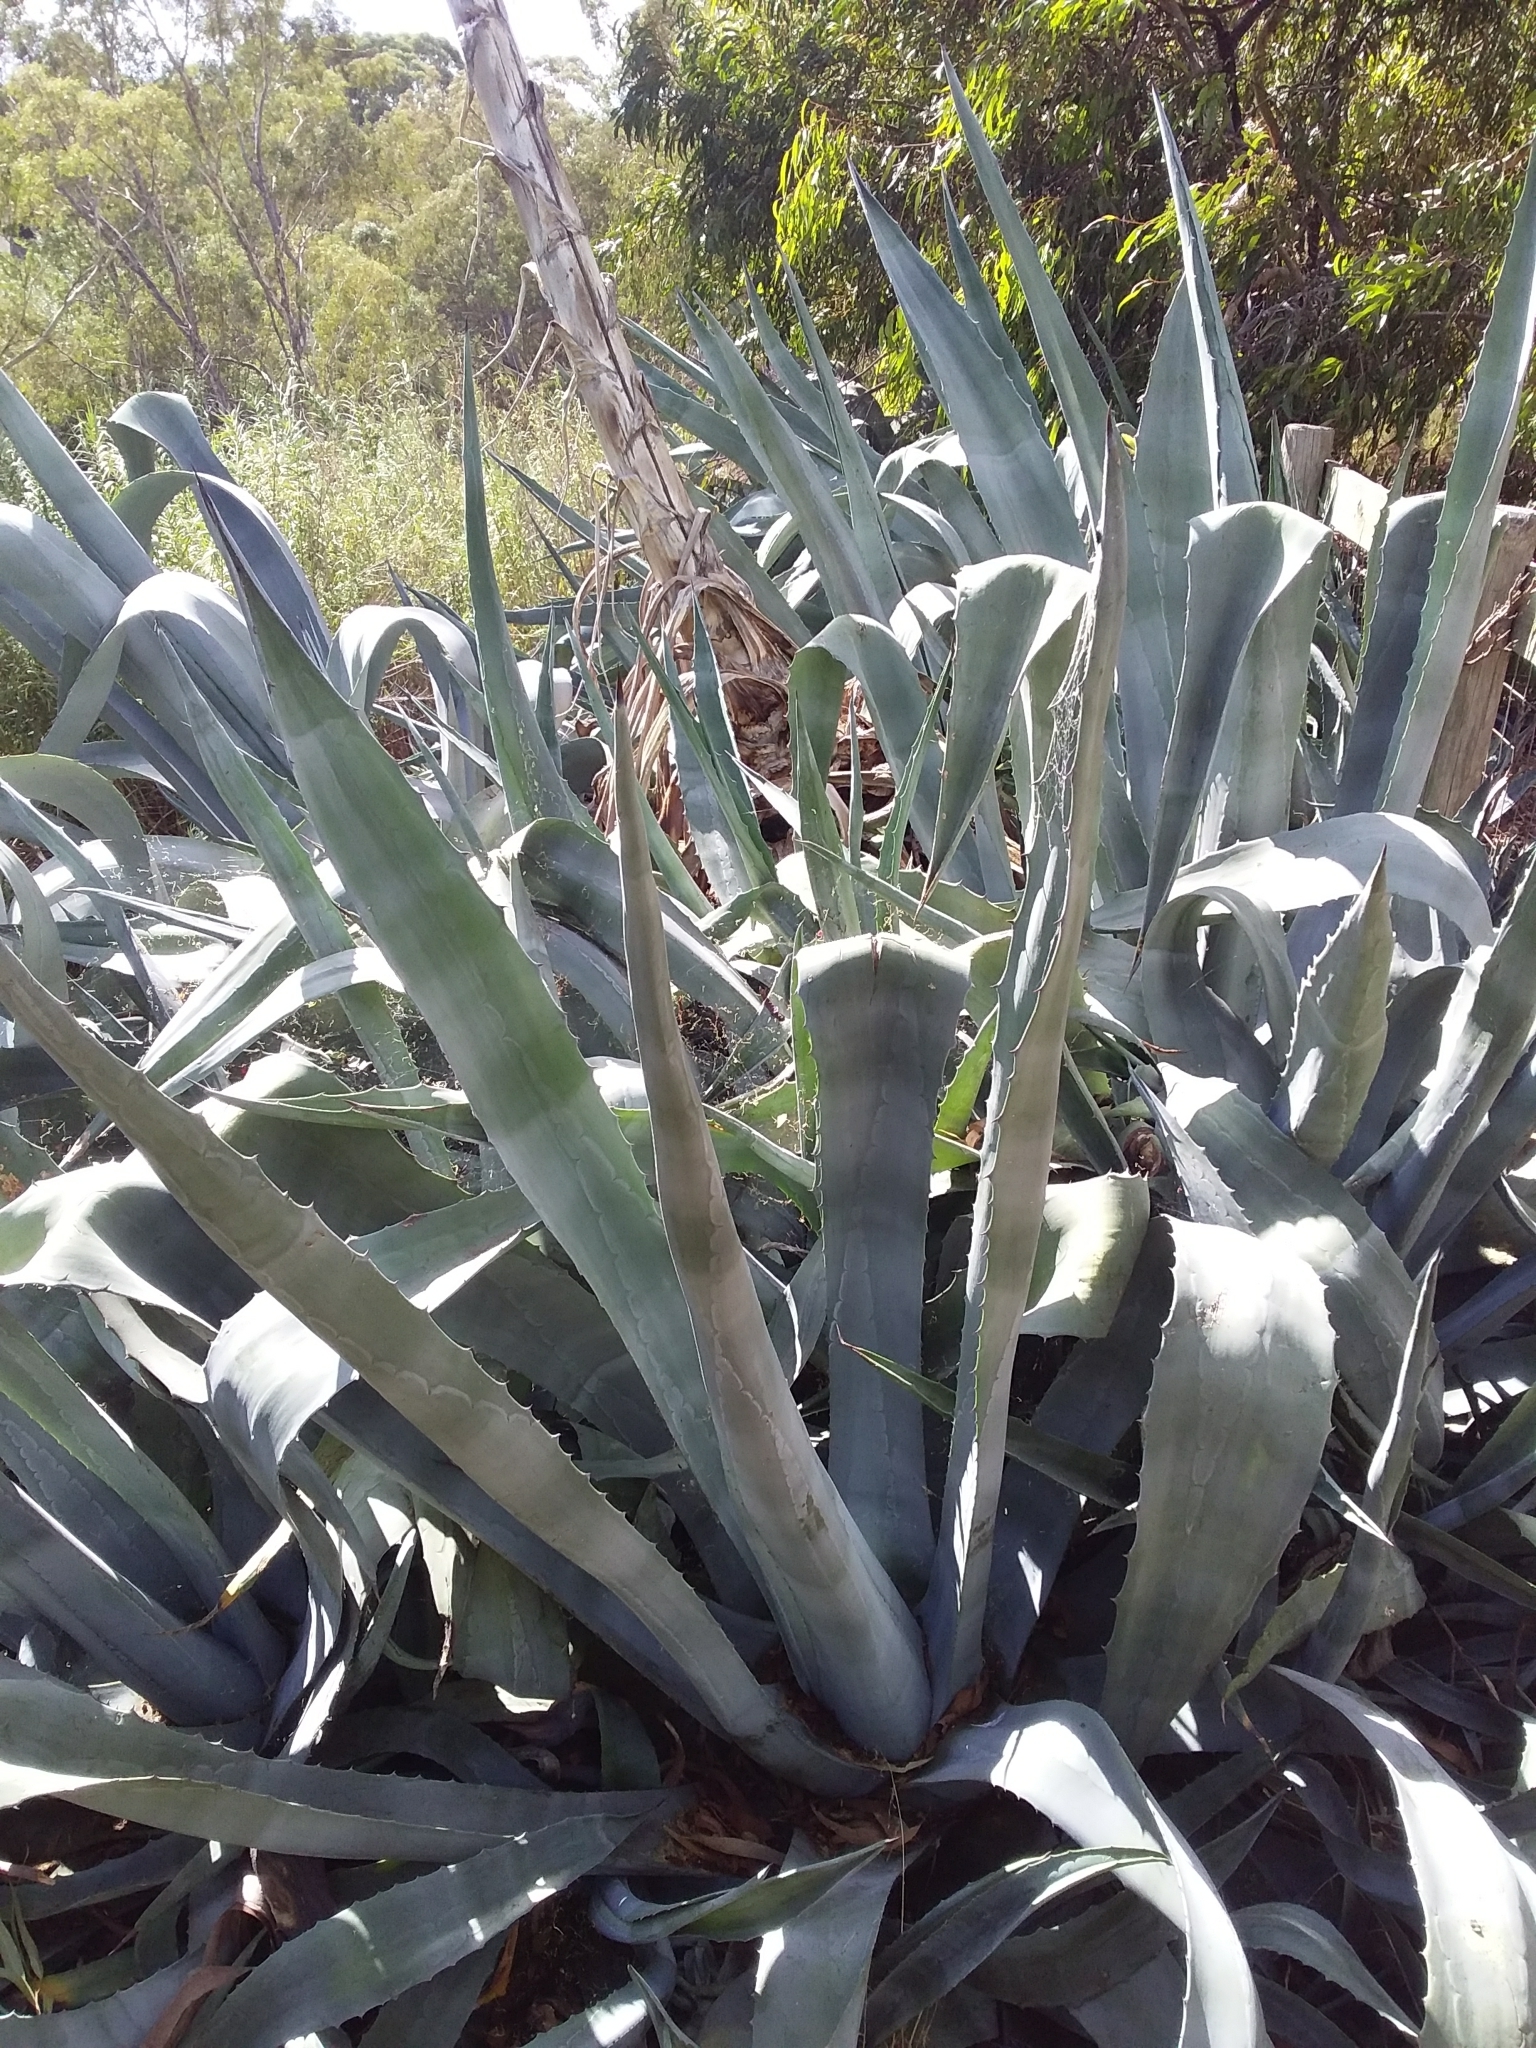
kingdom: Plantae
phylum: Tracheophyta
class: Liliopsida
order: Asparagales
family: Asparagaceae
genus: Agave
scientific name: Agave americana
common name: Centuryplant
